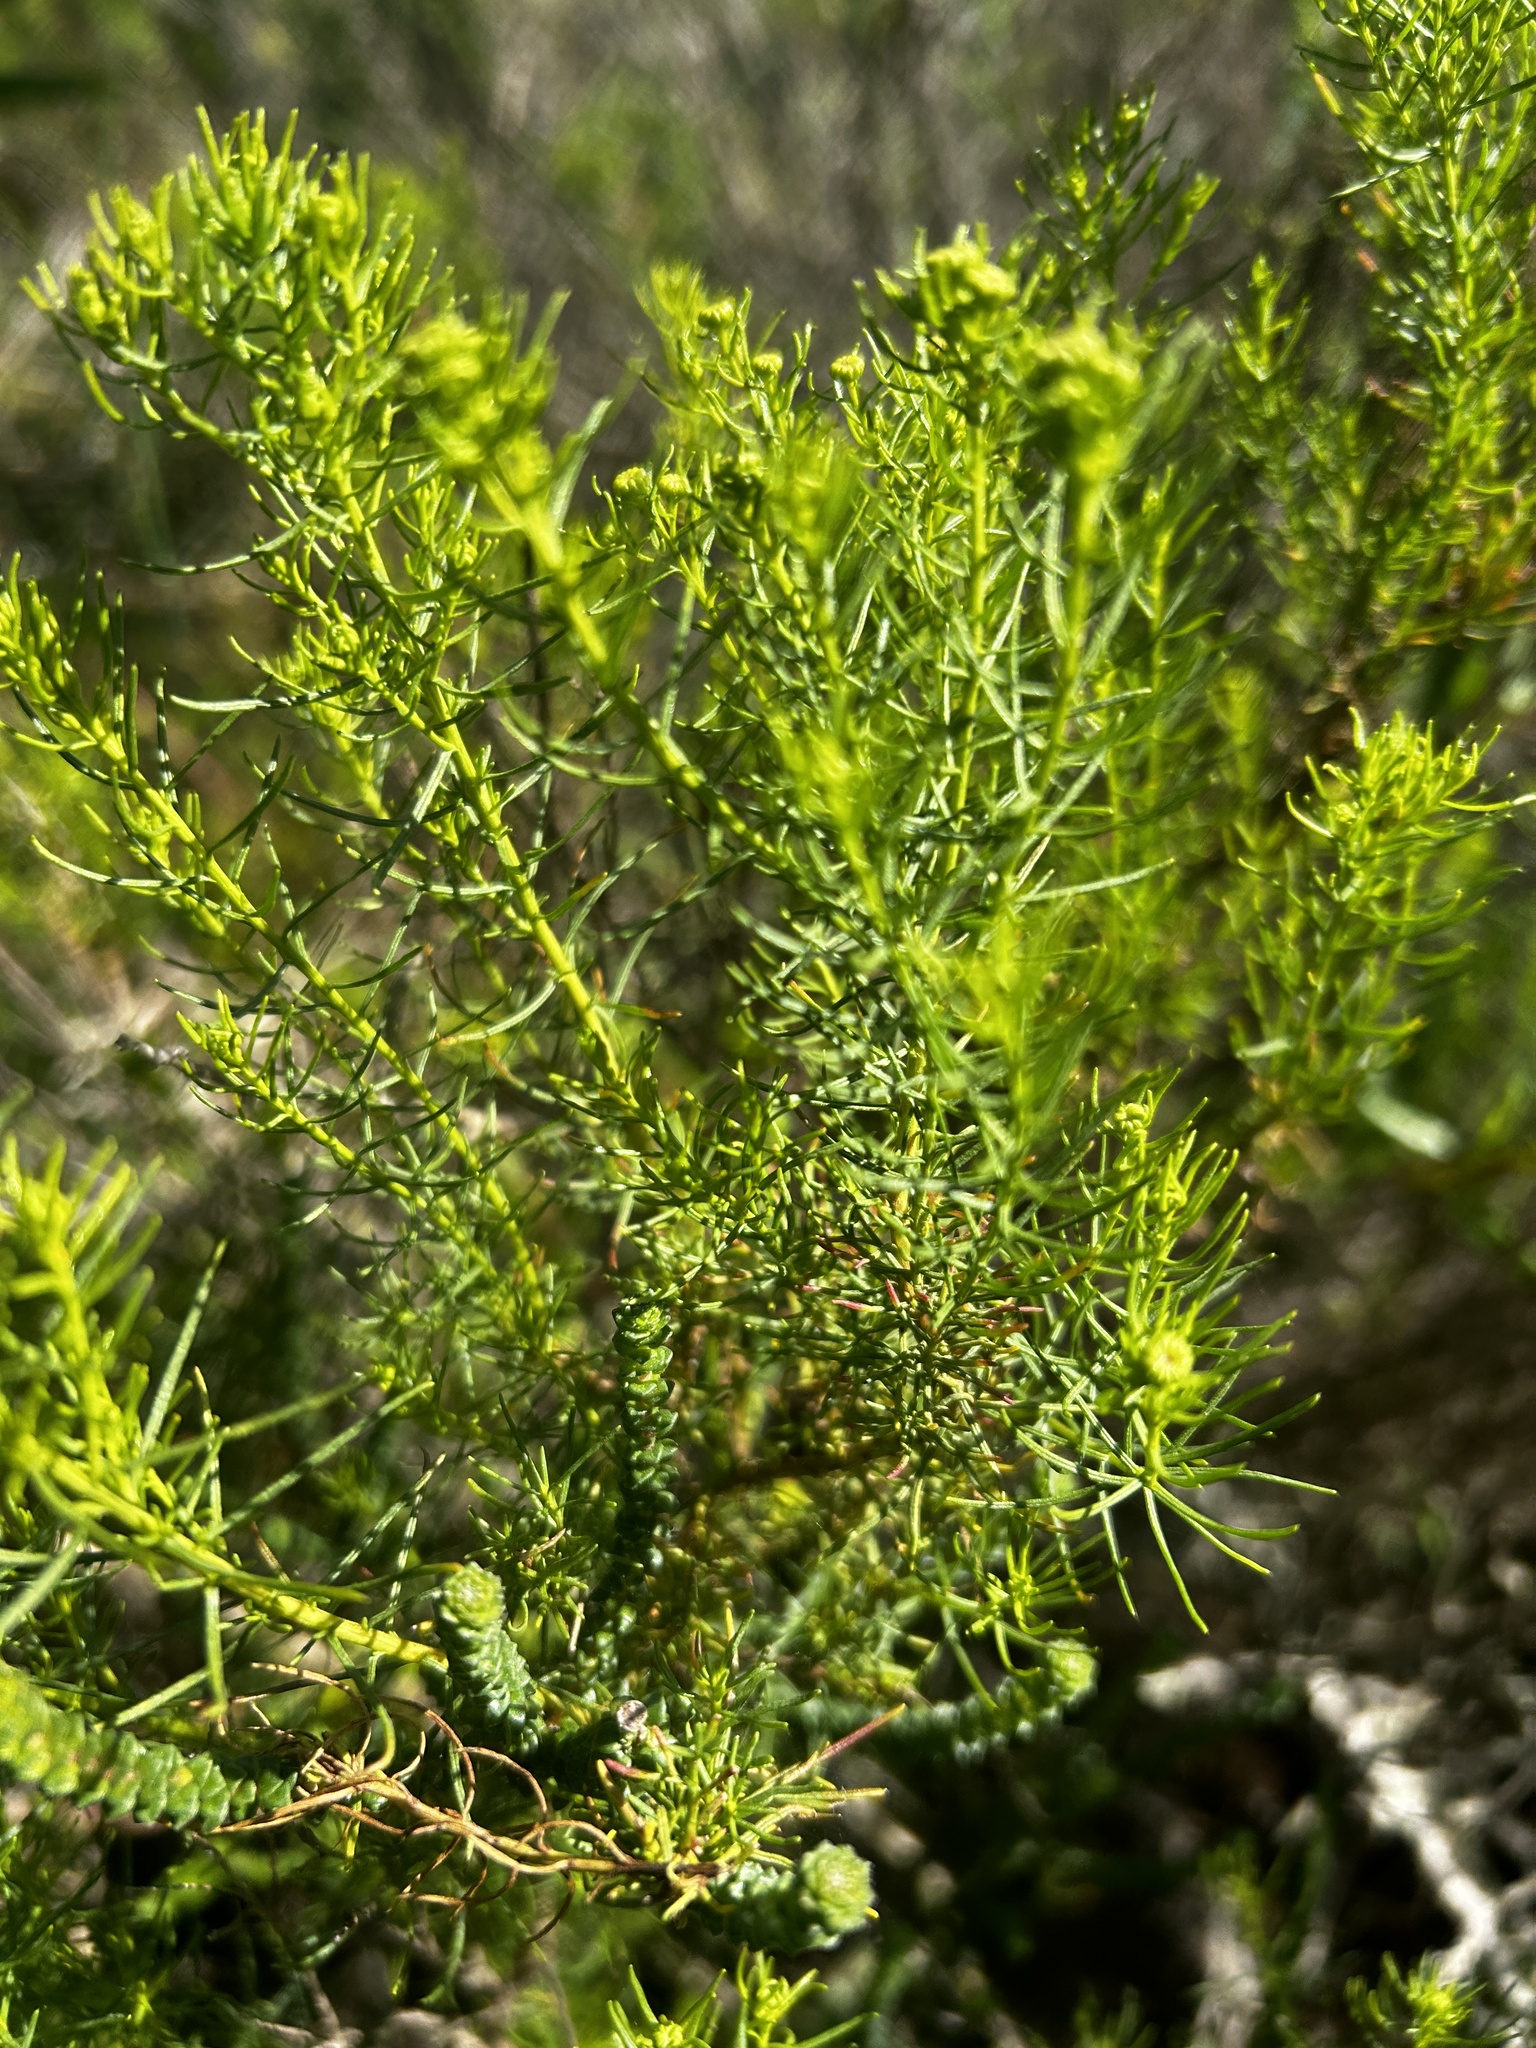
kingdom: Plantae
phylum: Tracheophyta
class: Magnoliopsida
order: Asterales
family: Asteraceae
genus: Chrysocoma
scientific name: Chrysocoma ciliata
